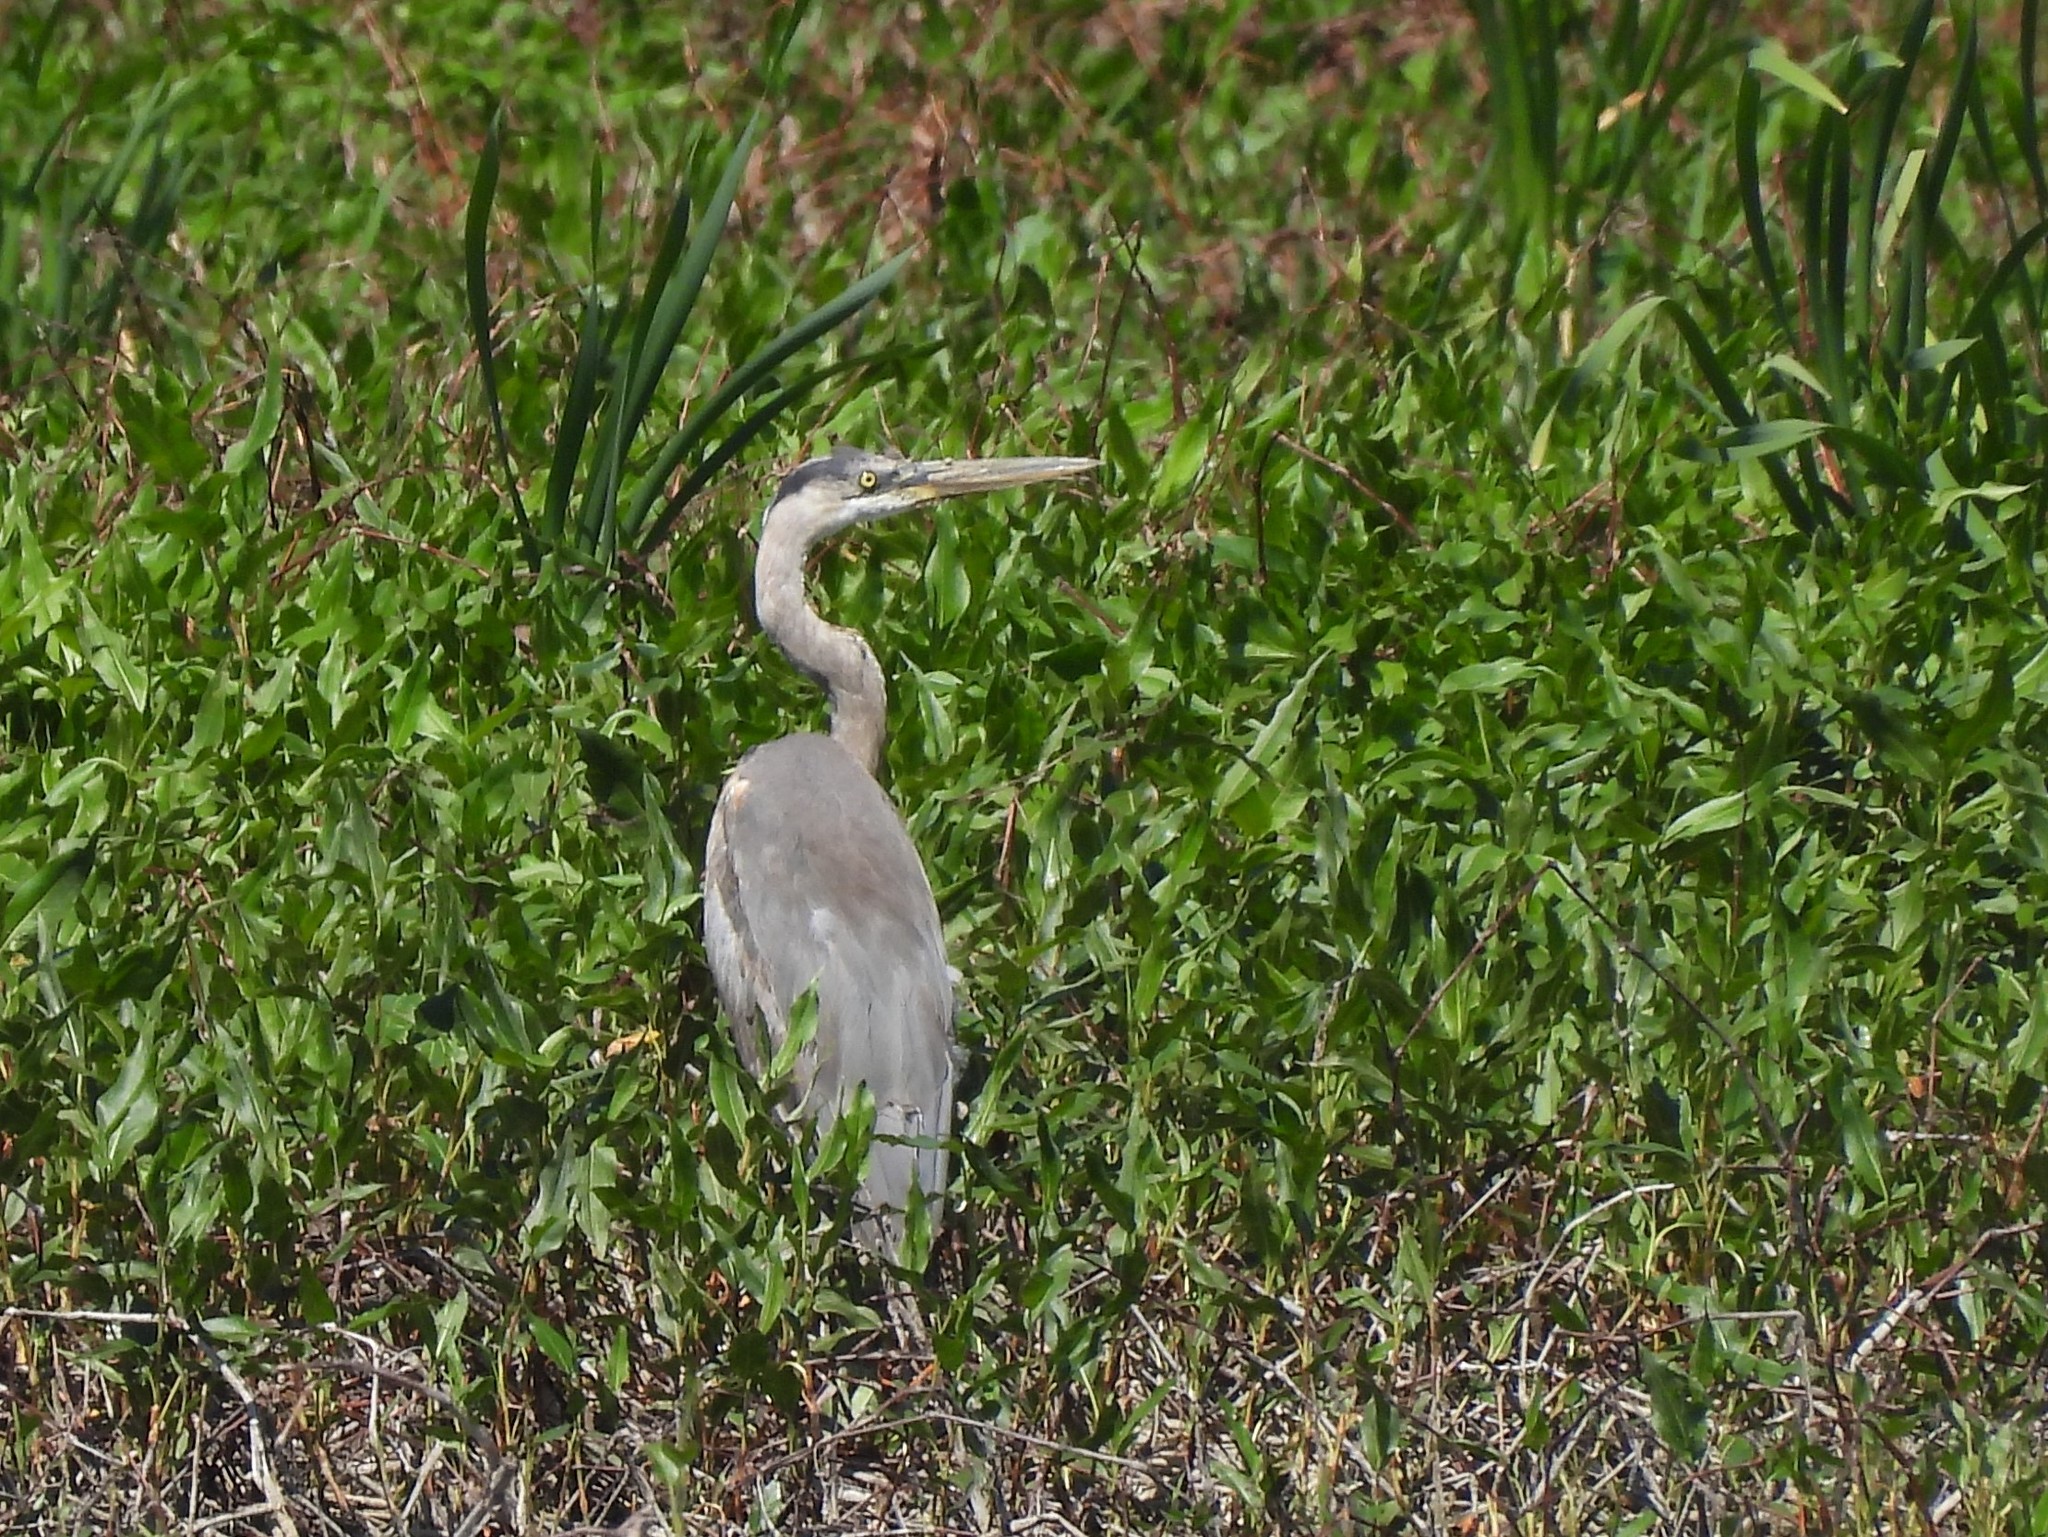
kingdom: Animalia
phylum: Chordata
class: Aves
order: Pelecaniformes
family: Ardeidae
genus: Ardea
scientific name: Ardea herodias
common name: Great blue heron
